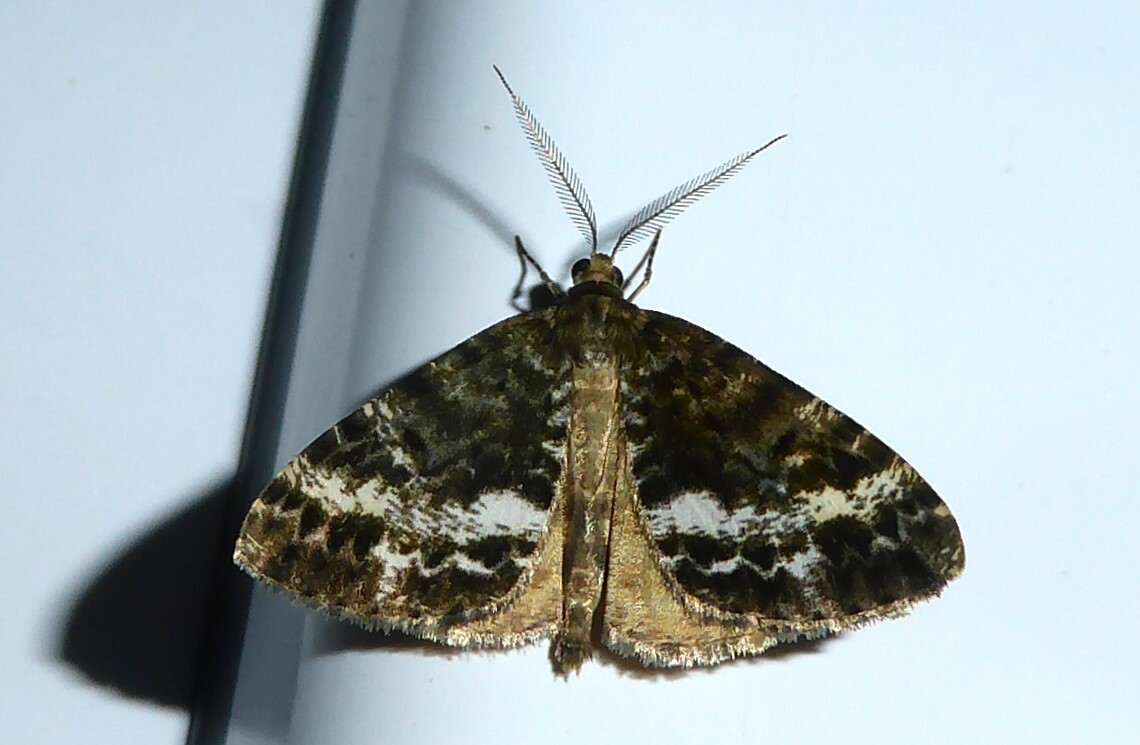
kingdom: Animalia
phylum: Arthropoda
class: Insecta
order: Lepidoptera
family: Geometridae
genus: Pseudocoremia
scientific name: Pseudocoremia lactiflua
